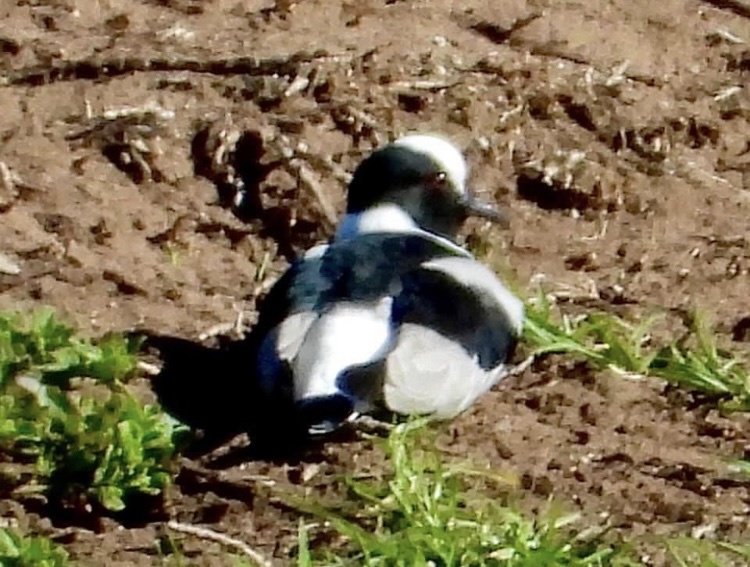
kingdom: Animalia
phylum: Chordata
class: Aves
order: Charadriiformes
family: Charadriidae
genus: Vanellus
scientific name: Vanellus armatus
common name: Blacksmith lapwing
